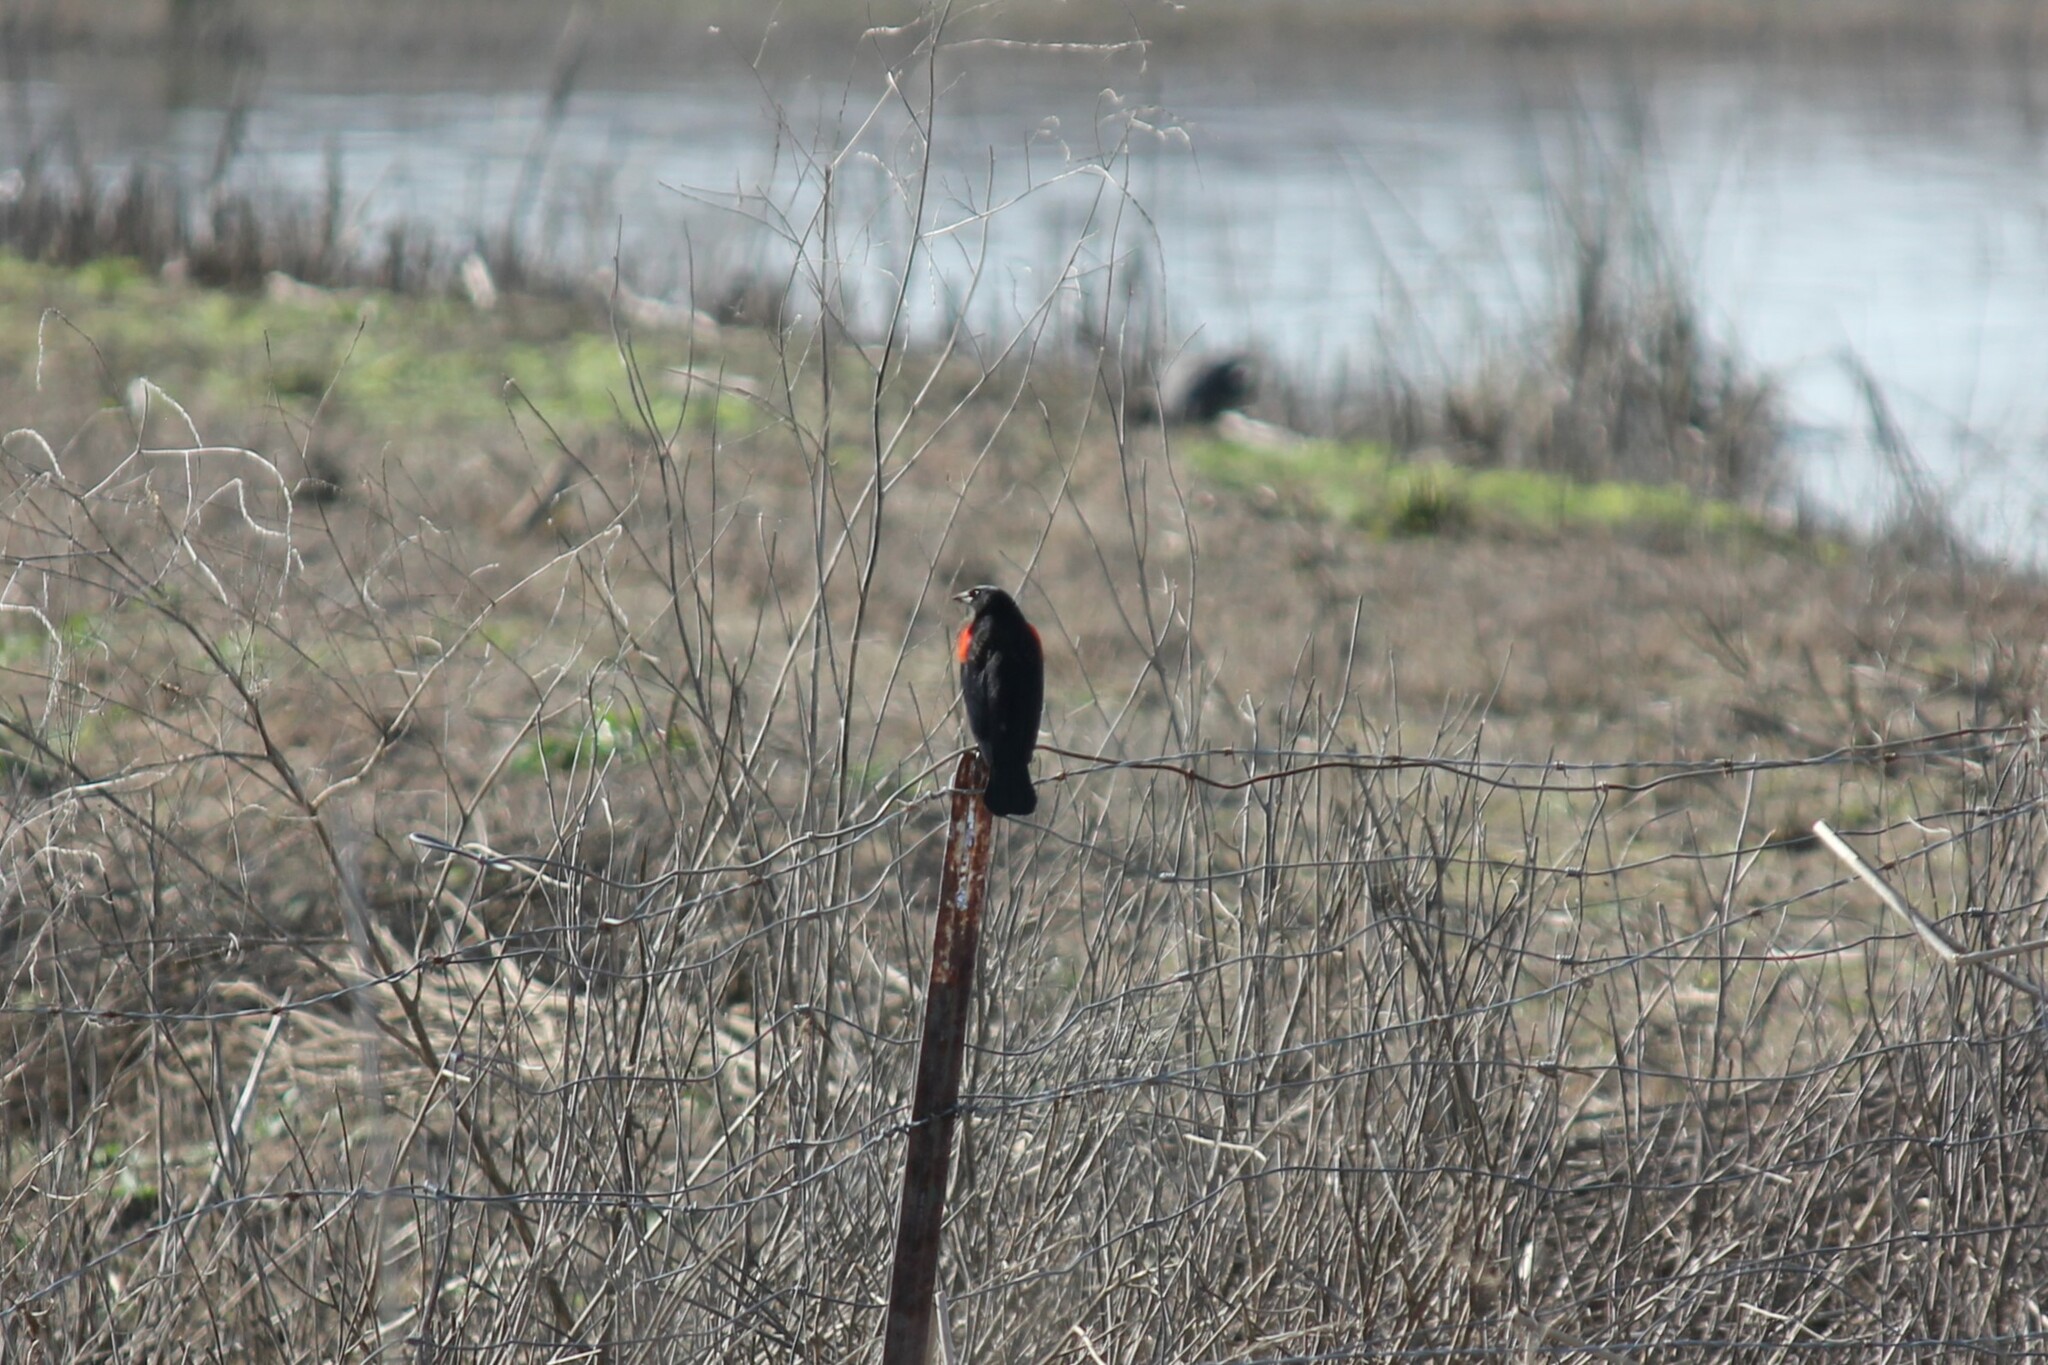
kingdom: Animalia
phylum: Chordata
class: Aves
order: Passeriformes
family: Icteridae
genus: Agelaius
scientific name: Agelaius phoeniceus
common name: Red-winged blackbird
